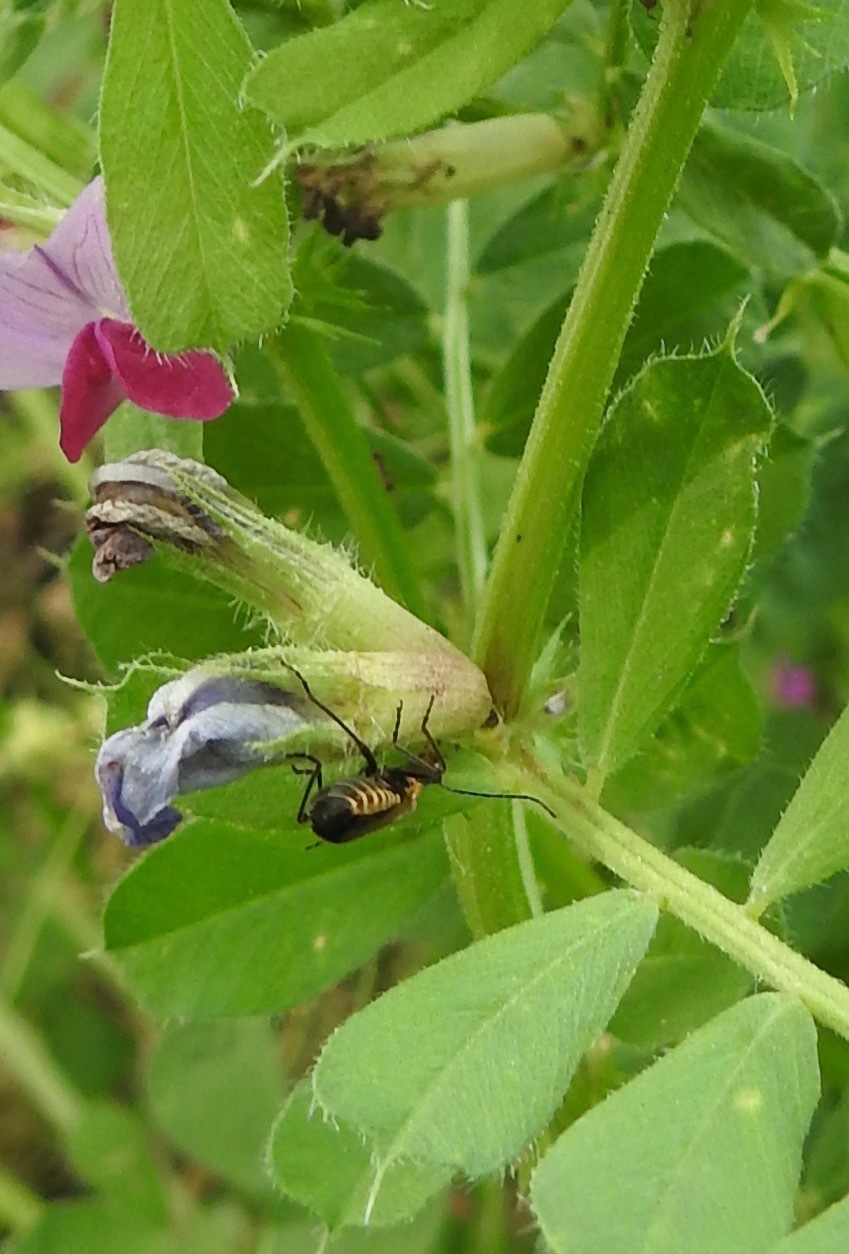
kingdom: Plantae
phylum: Tracheophyta
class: Magnoliopsida
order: Fabales
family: Fabaceae
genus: Vicia
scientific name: Vicia sativa
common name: Garden vetch
